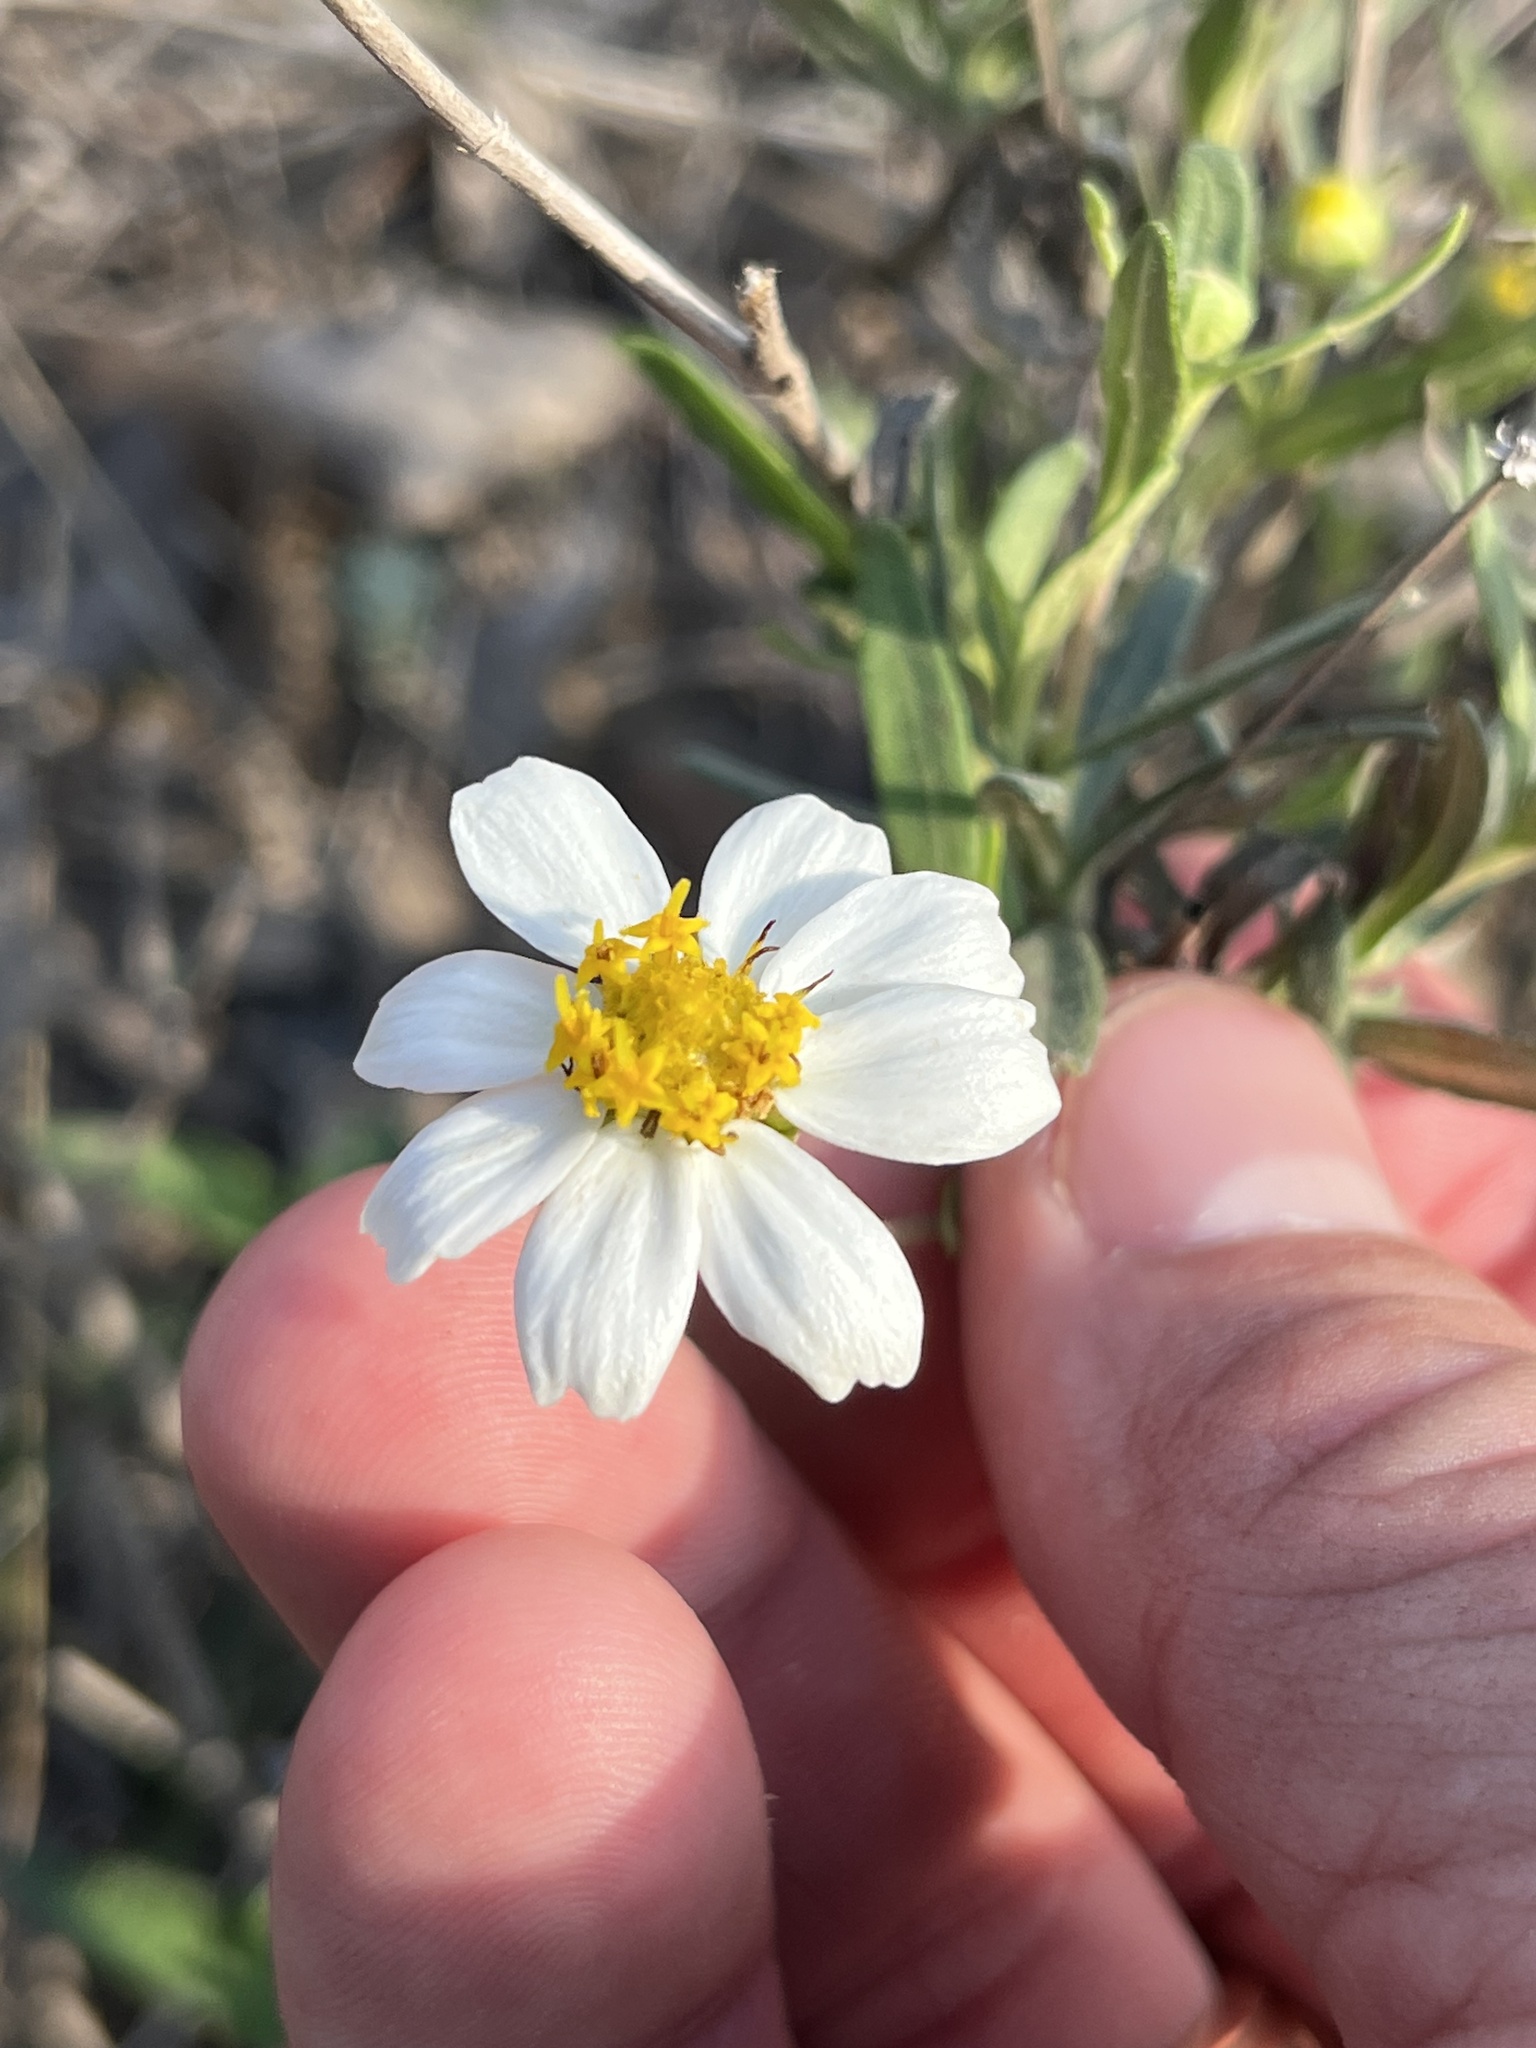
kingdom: Plantae
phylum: Tracheophyta
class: Magnoliopsida
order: Asterales
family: Asteraceae
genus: Melampodium
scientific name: Melampodium leucanthum
